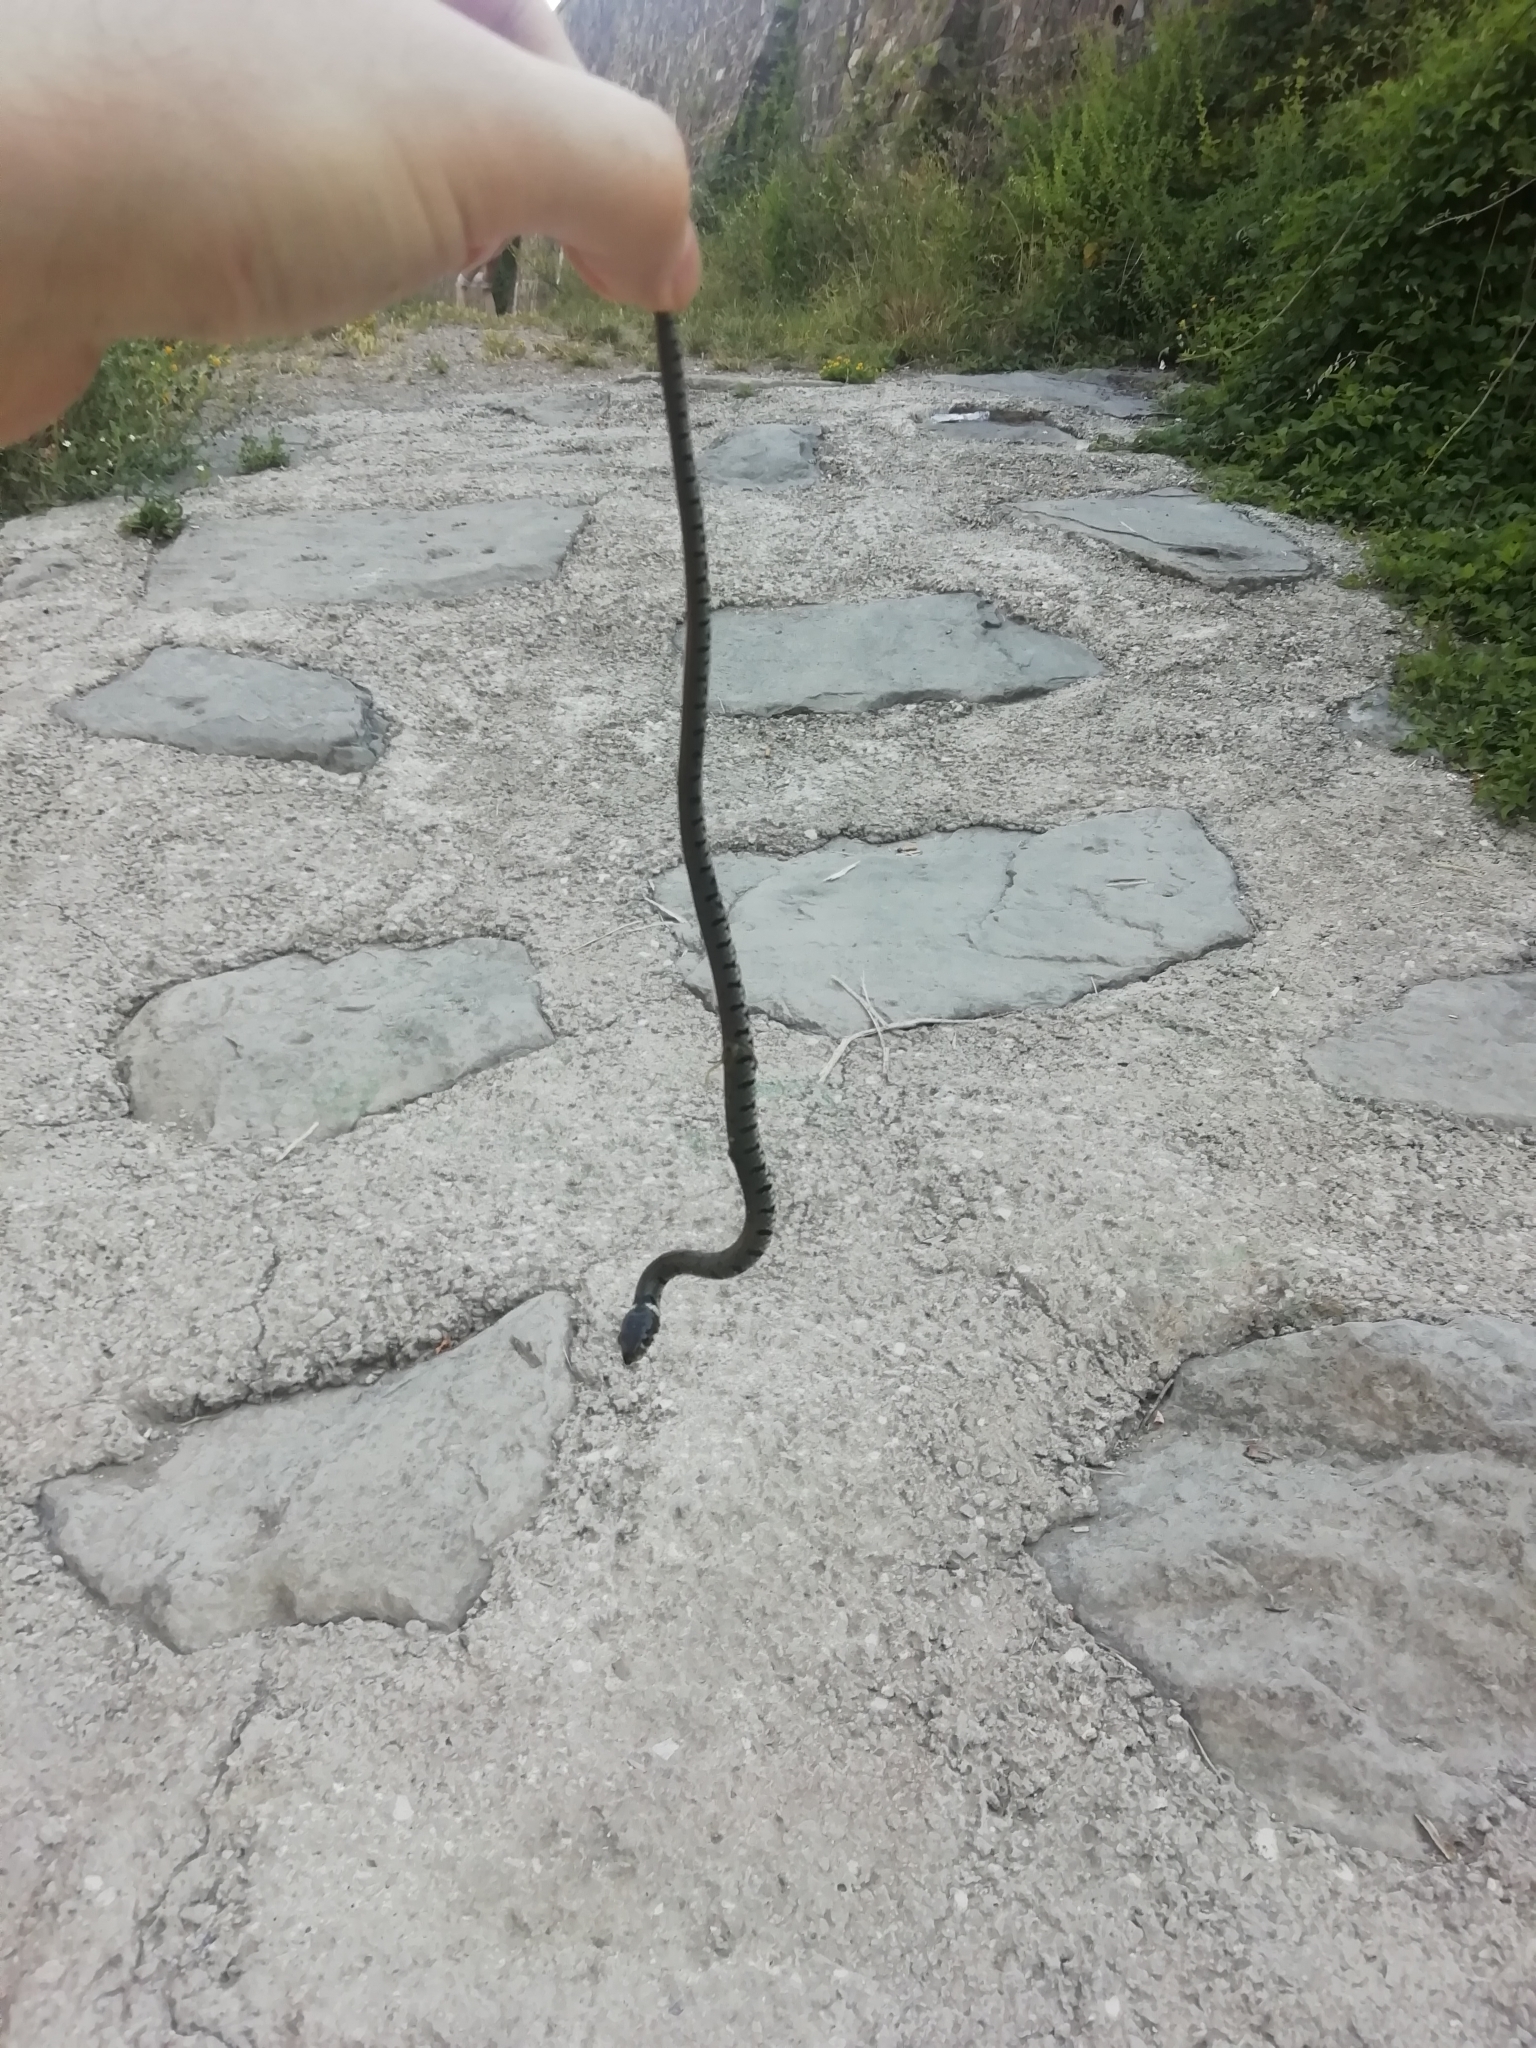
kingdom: Animalia
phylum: Chordata
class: Squamata
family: Colubridae
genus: Natrix
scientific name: Natrix helvetica
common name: Banded grass snake
